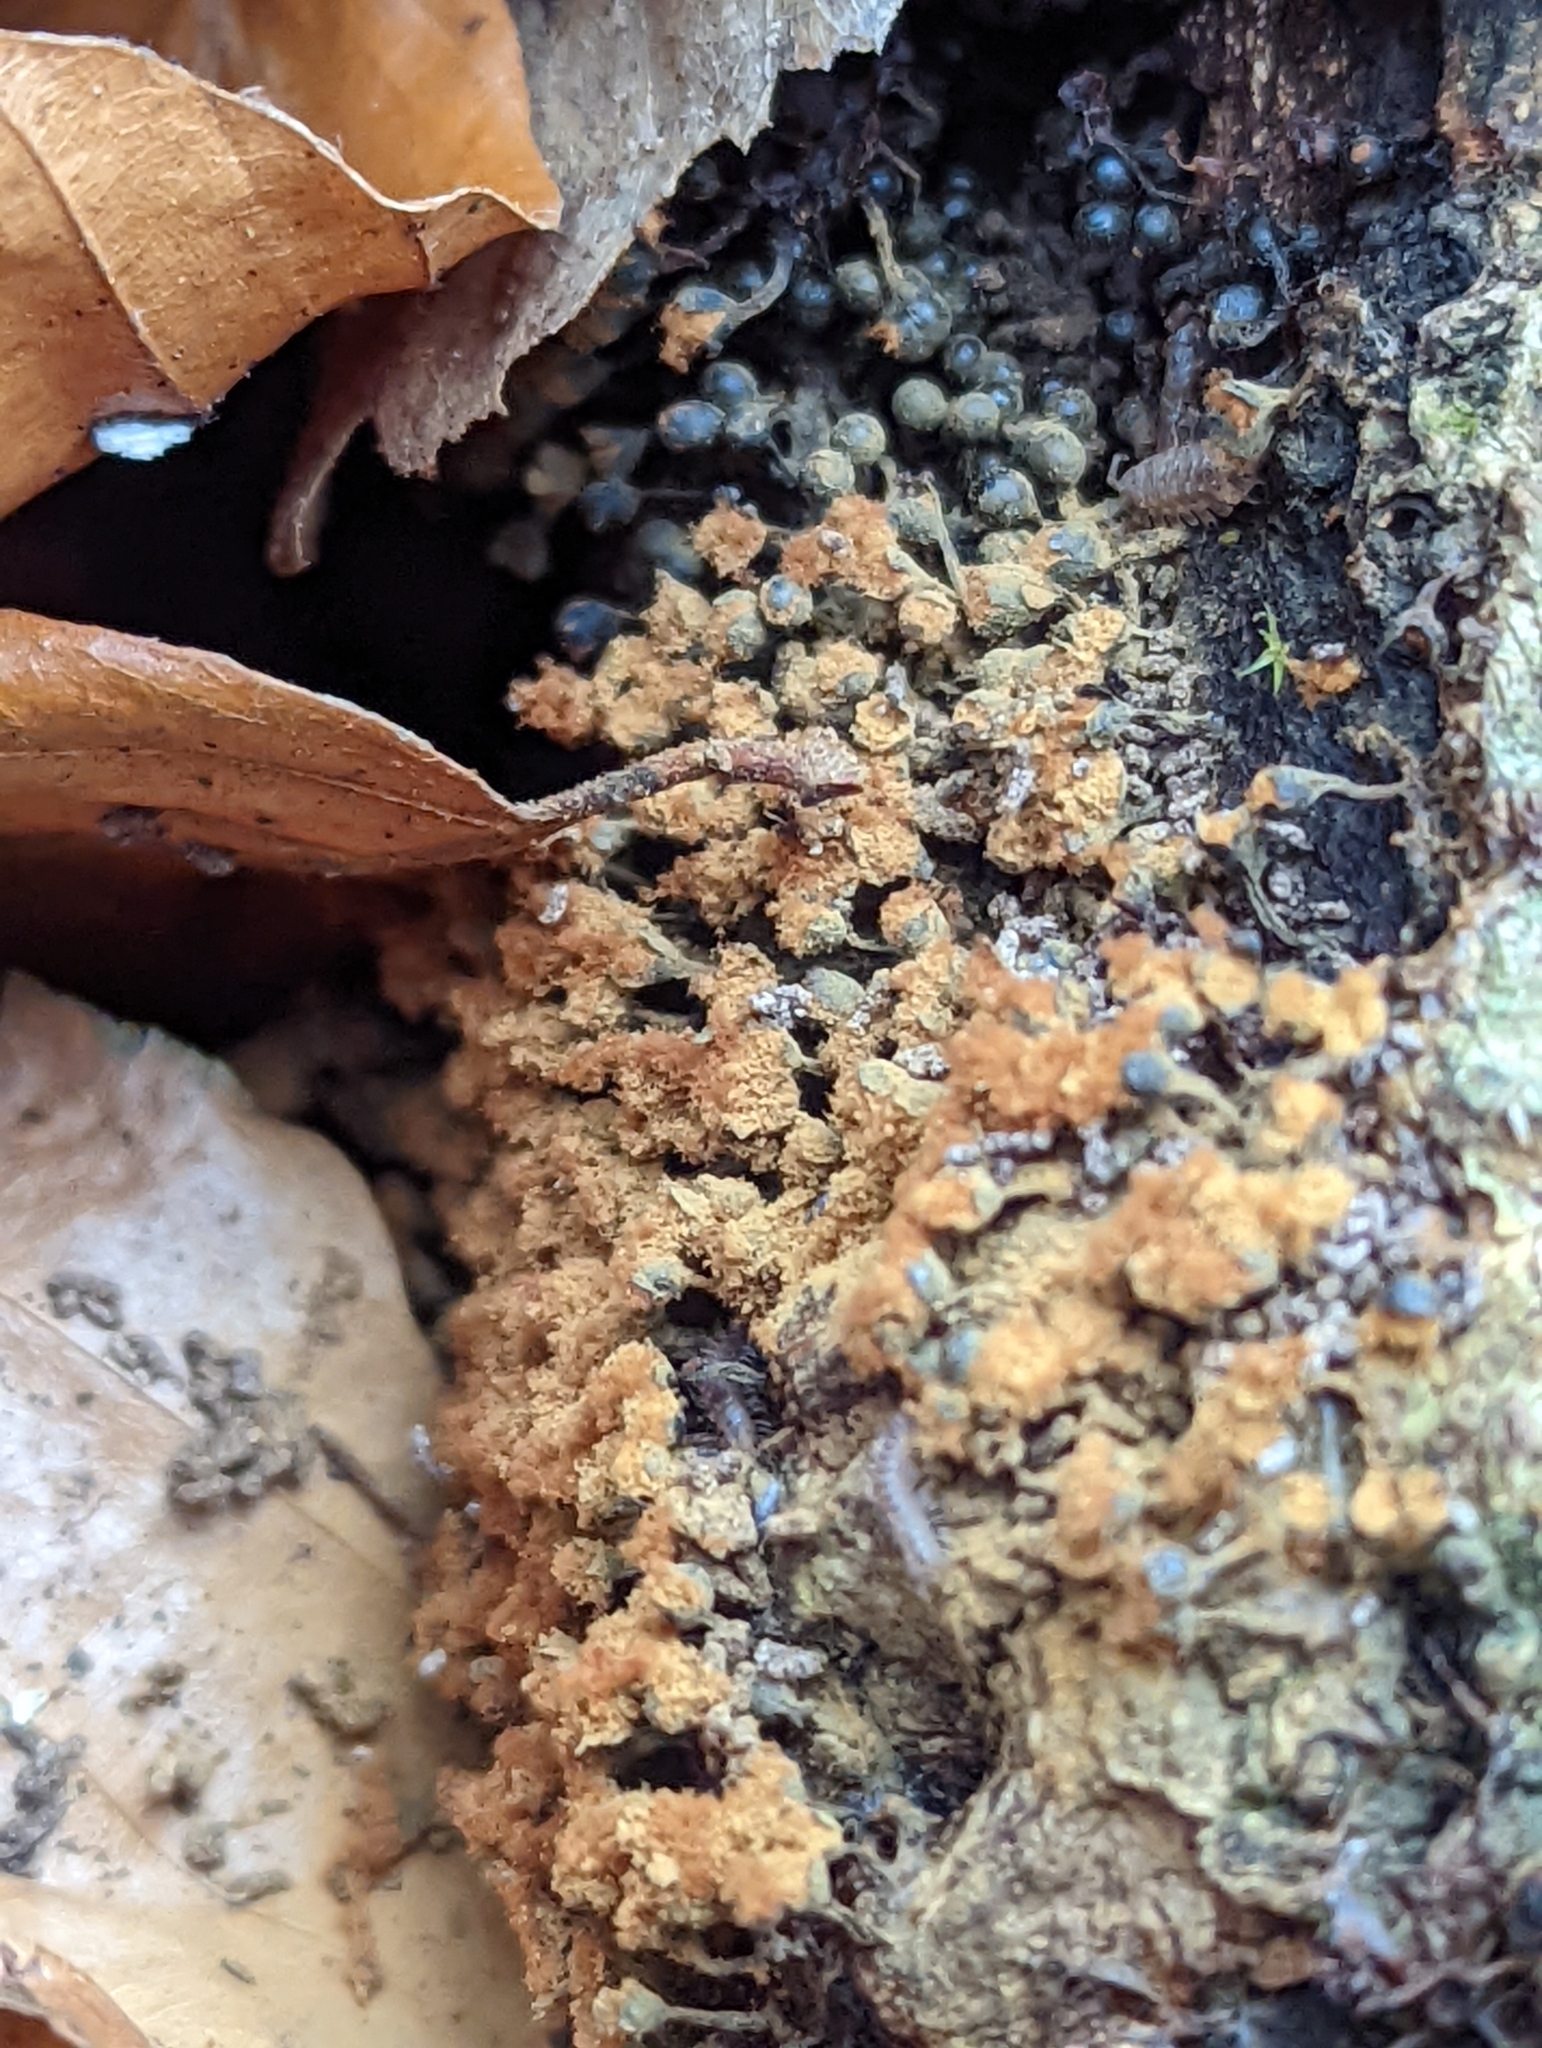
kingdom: Protozoa
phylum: Mycetozoa
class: Myxomycetes
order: Trichiales
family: Trichiaceae
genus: Metatrichia
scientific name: Metatrichia floriformis
